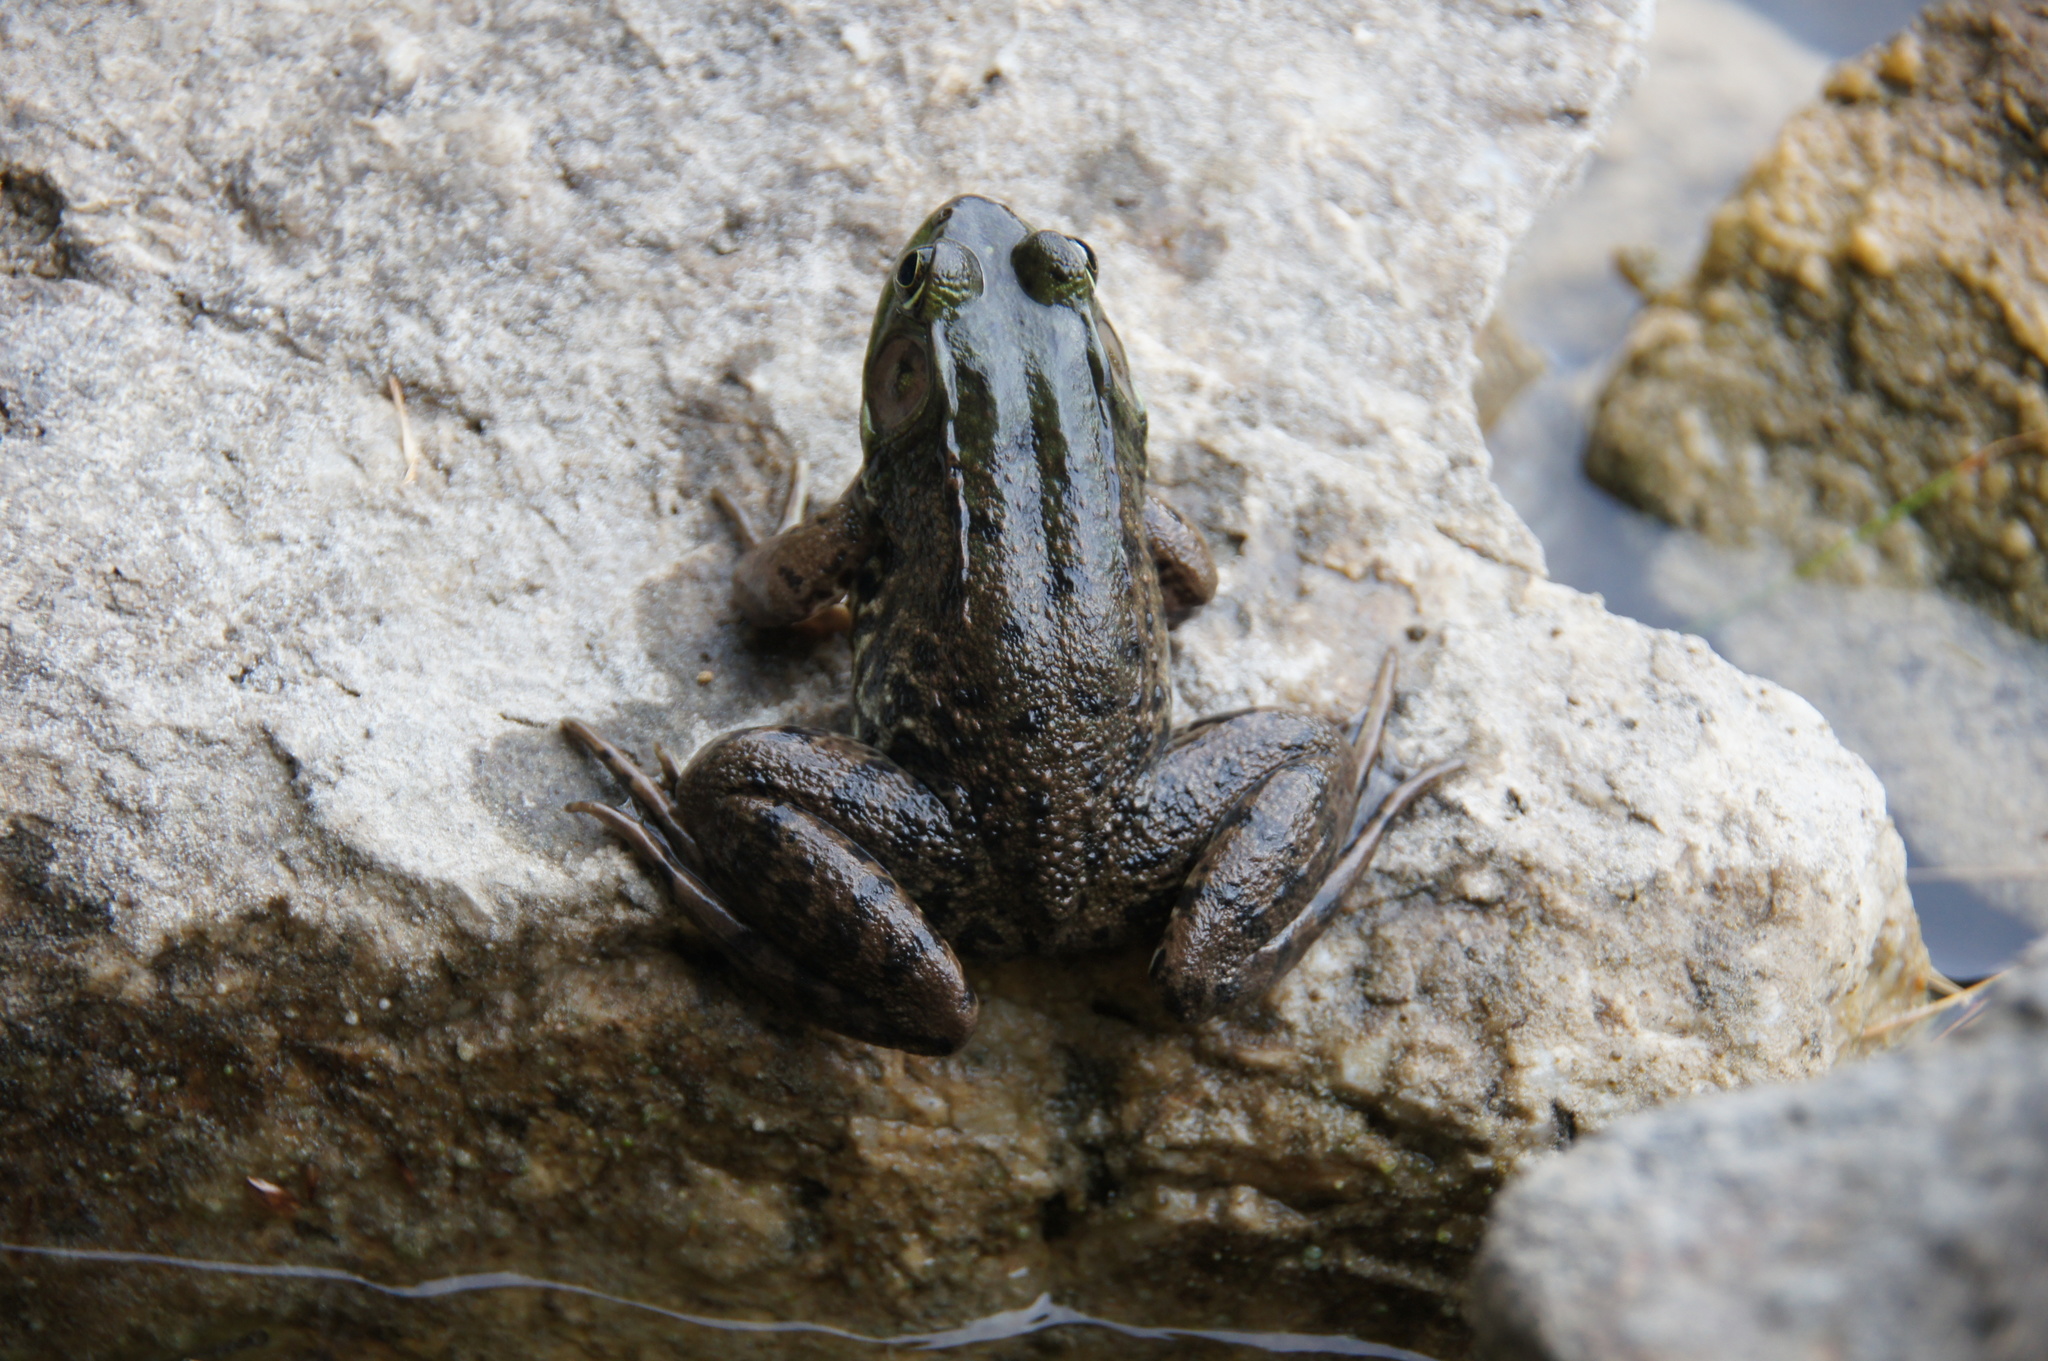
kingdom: Animalia
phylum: Chordata
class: Amphibia
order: Anura
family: Ranidae
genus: Lithobates
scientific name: Lithobates clamitans
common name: Green frog
